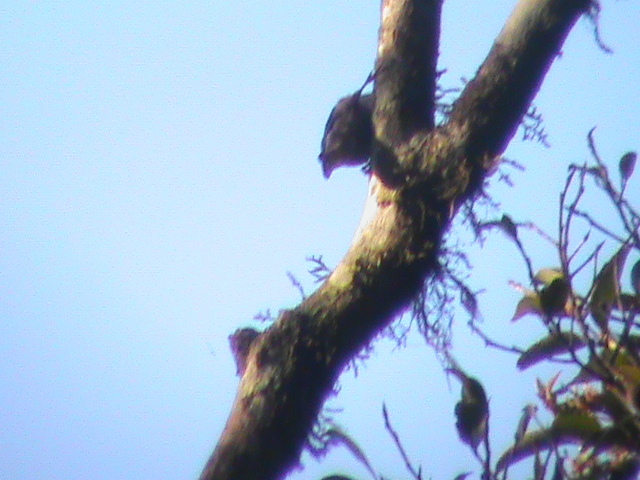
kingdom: Animalia
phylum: Chordata
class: Aves
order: Passeriformes
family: Sittidae
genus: Sitta
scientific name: Sitta frontalis
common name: Velvet-fronted nuthatch
